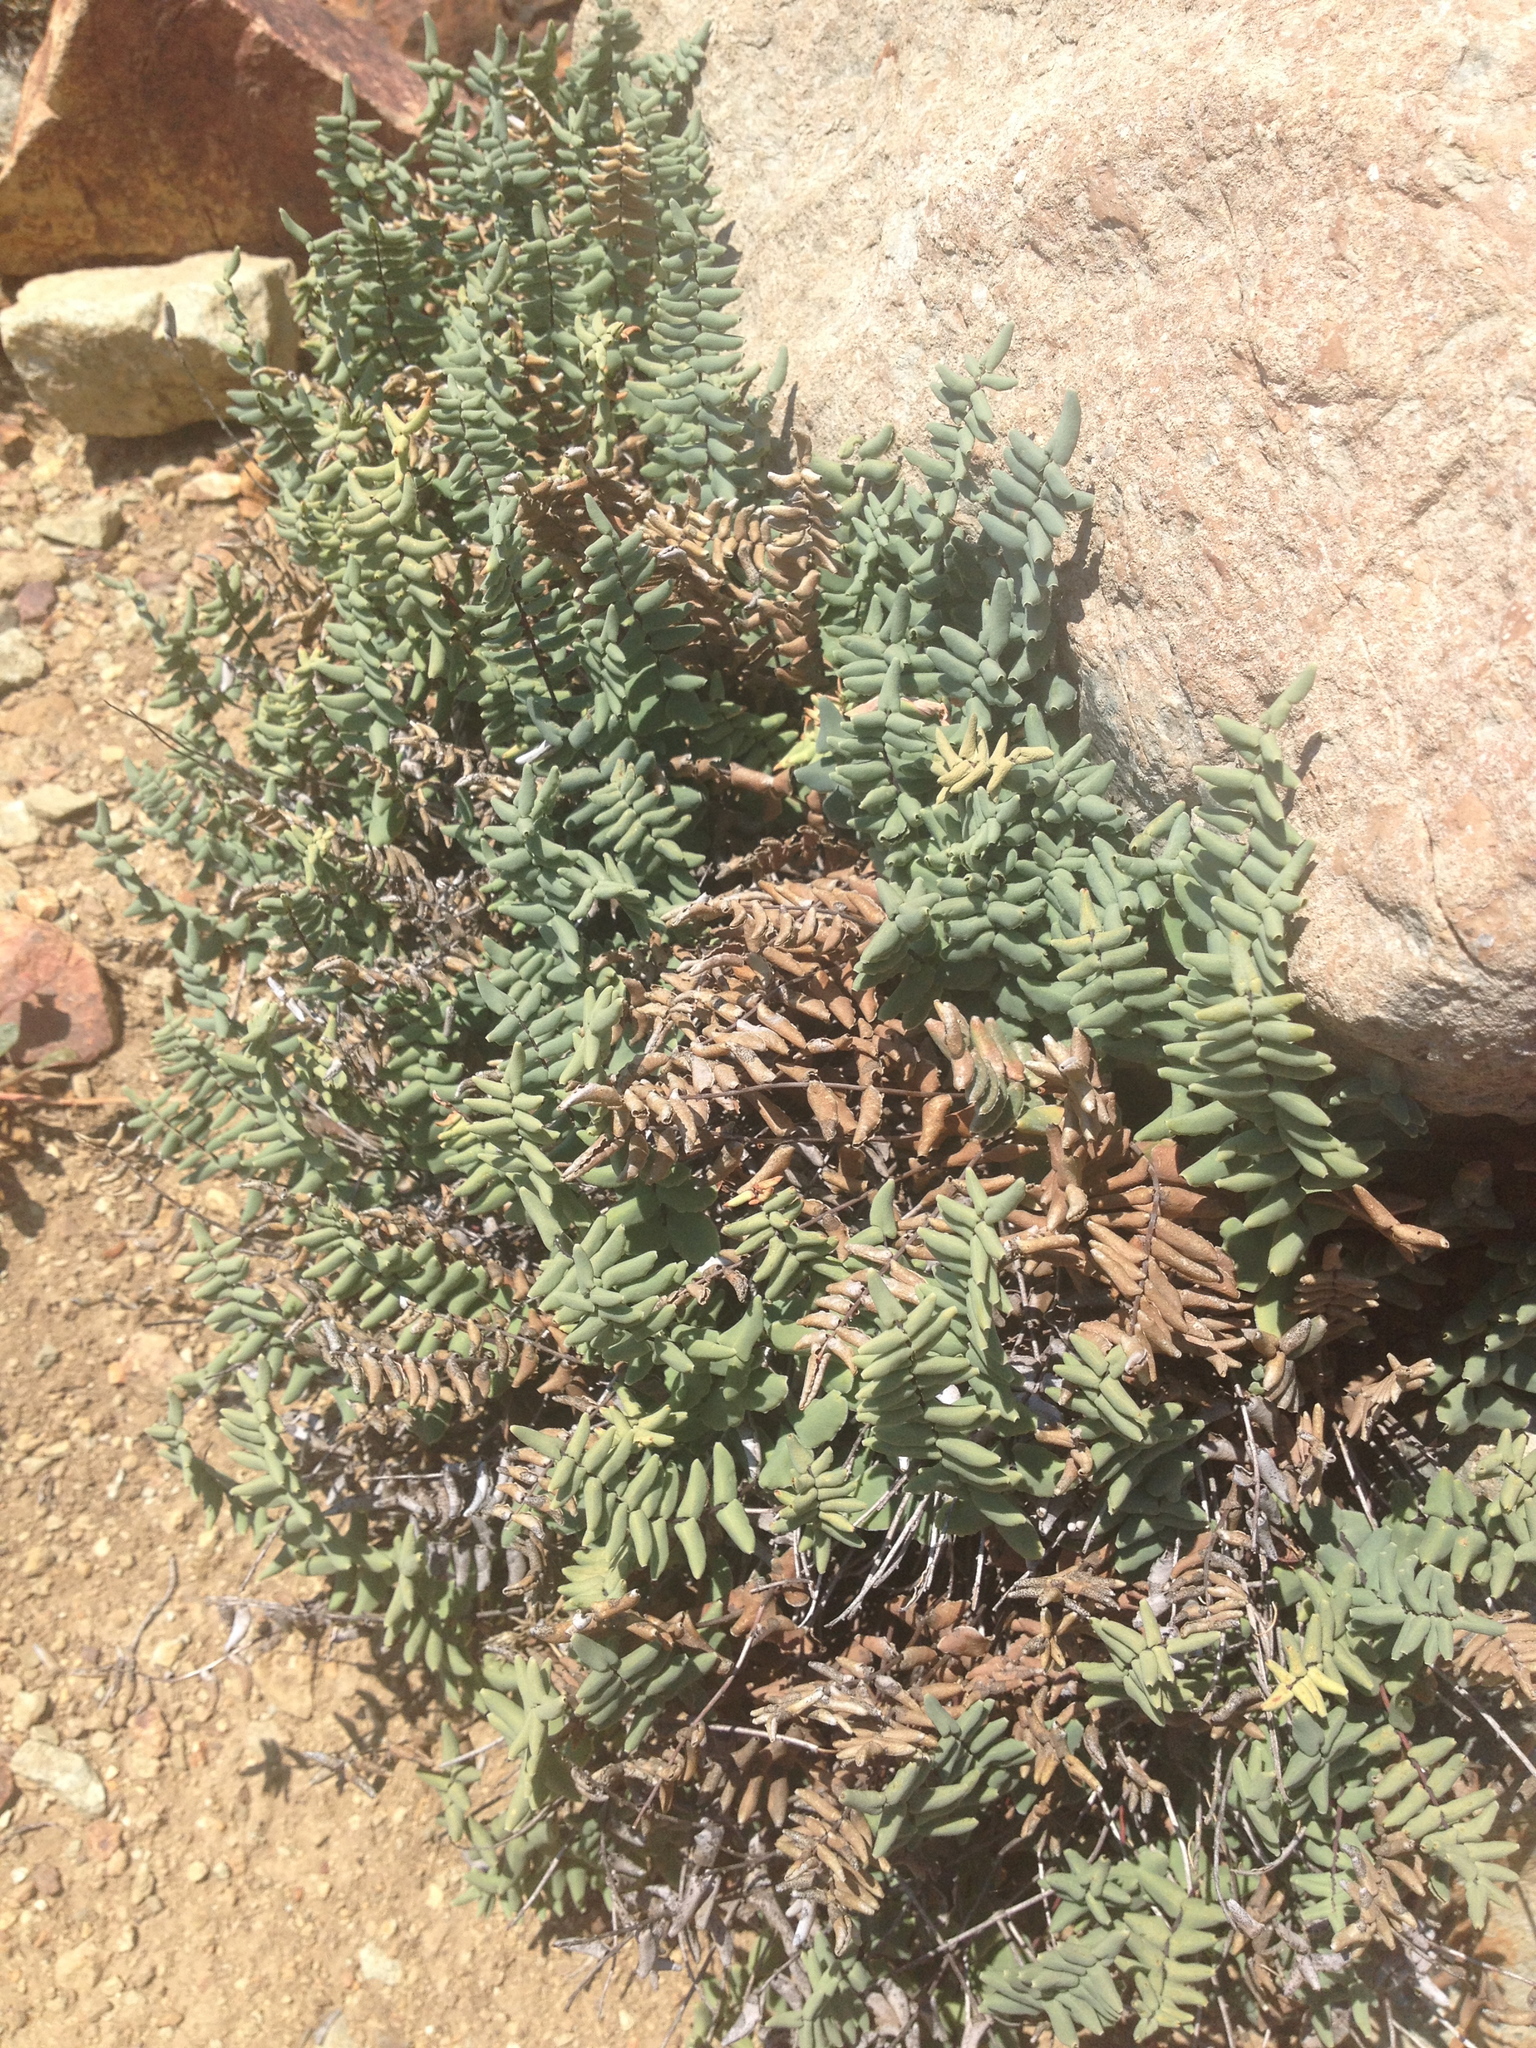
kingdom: Plantae
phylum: Tracheophyta
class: Polypodiopsida
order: Polypodiales
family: Pteridaceae
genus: Pellaea
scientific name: Pellaea bridgesii
